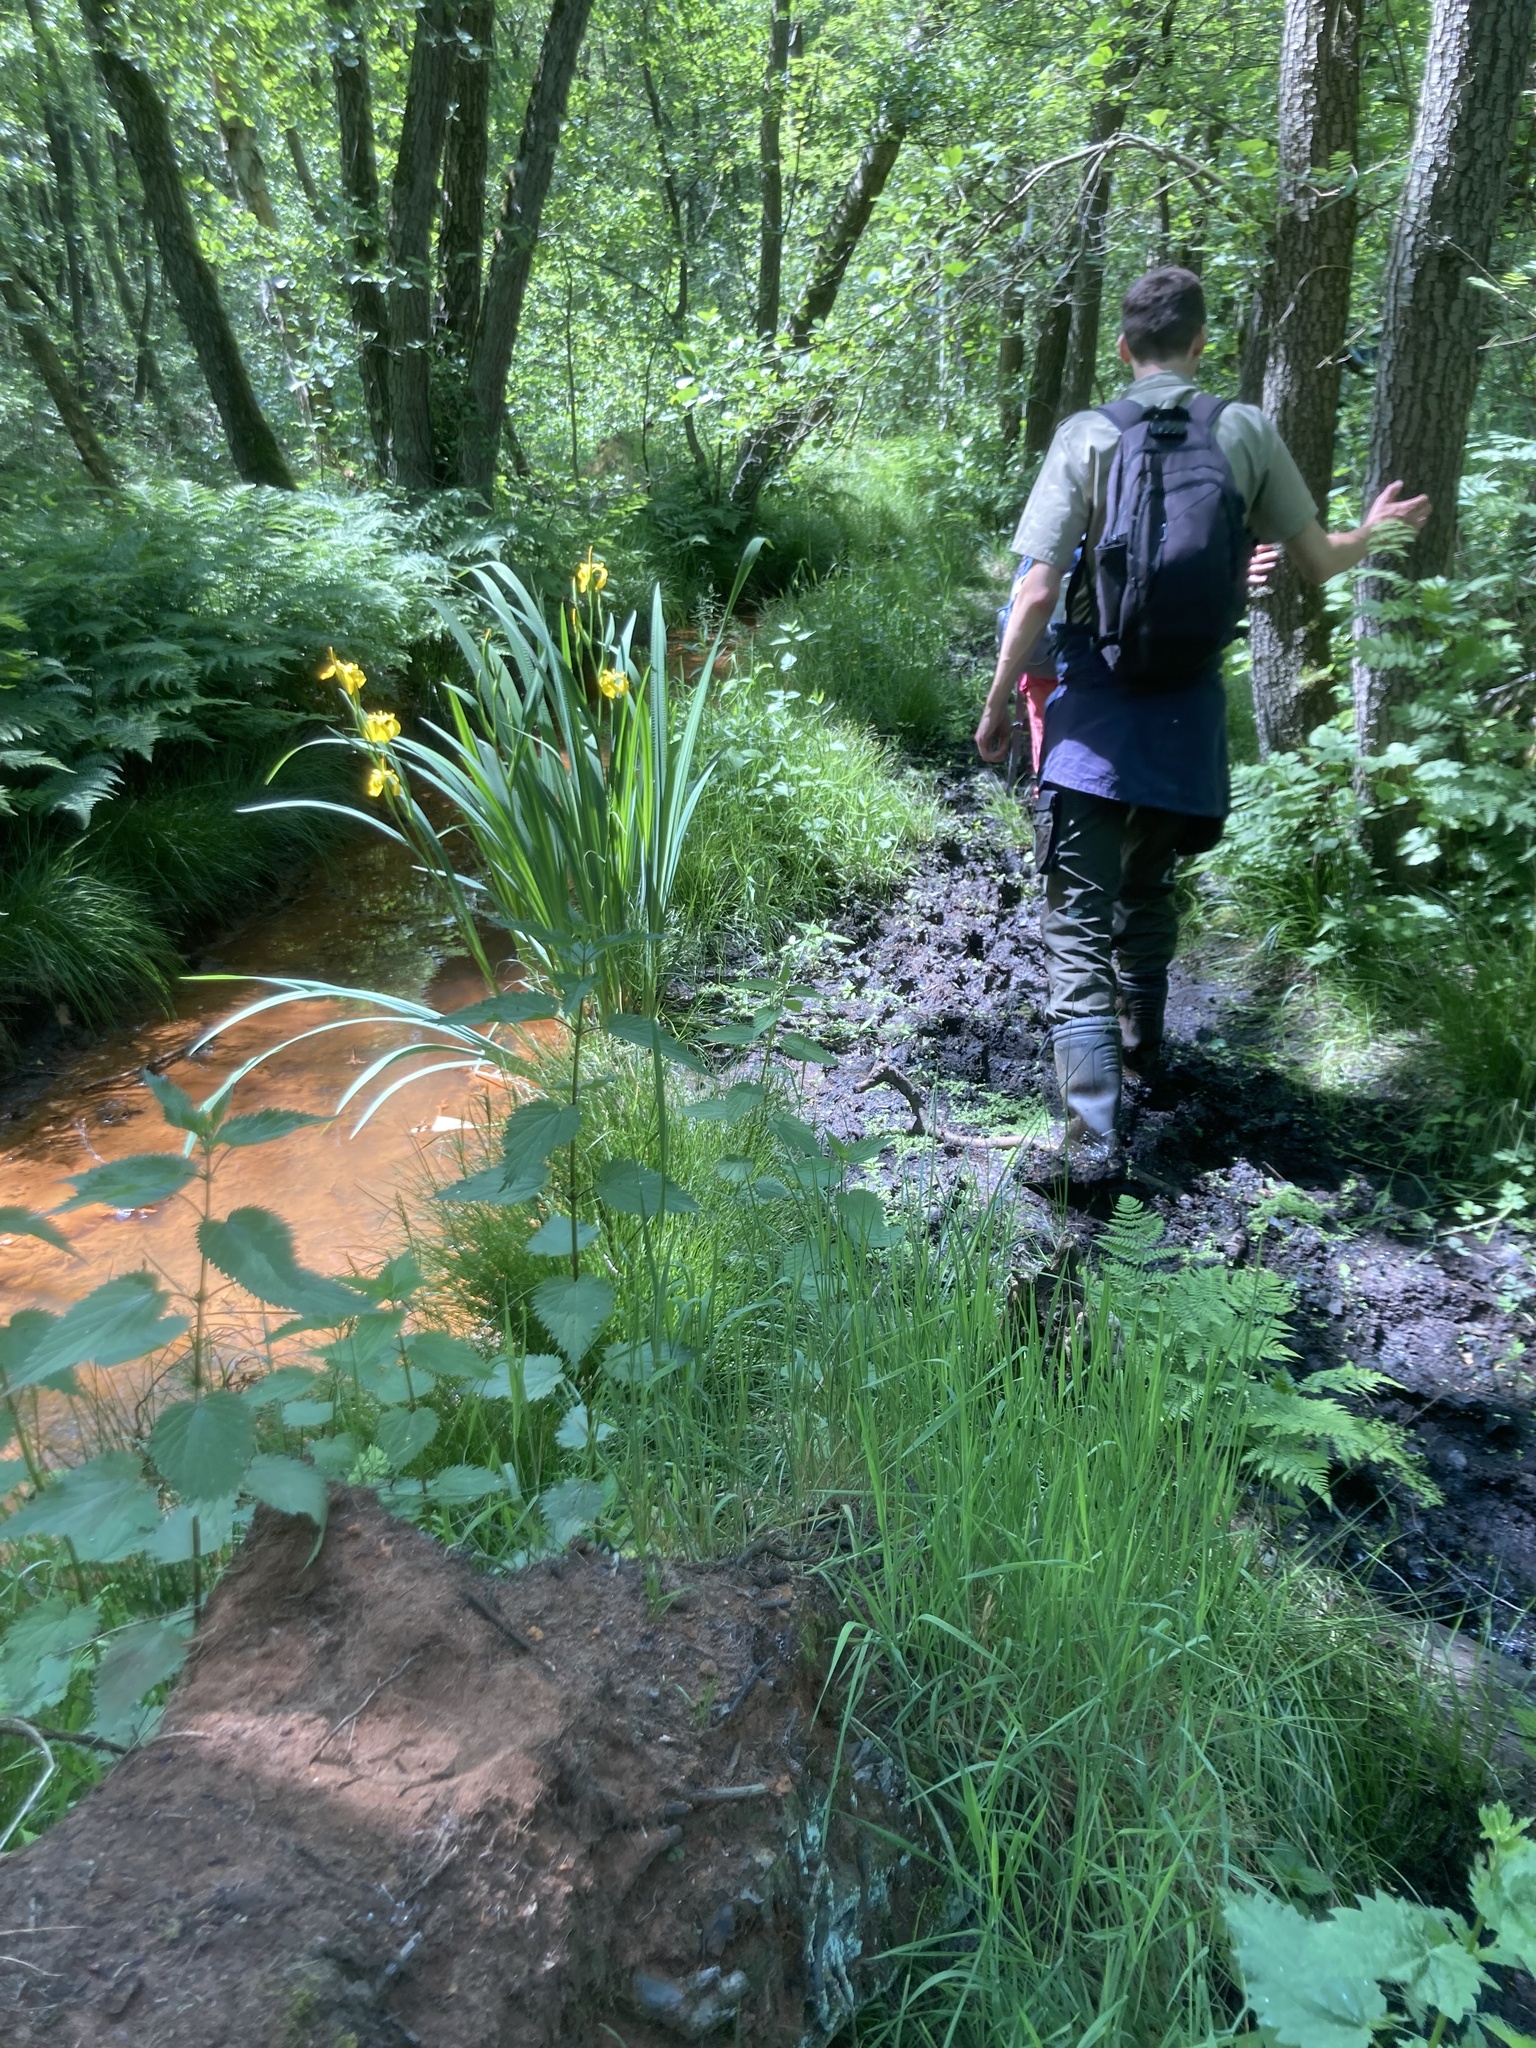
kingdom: Plantae
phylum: Tracheophyta
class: Liliopsida
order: Asparagales
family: Iridaceae
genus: Iris
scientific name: Iris pseudacorus
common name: Yellow flag
